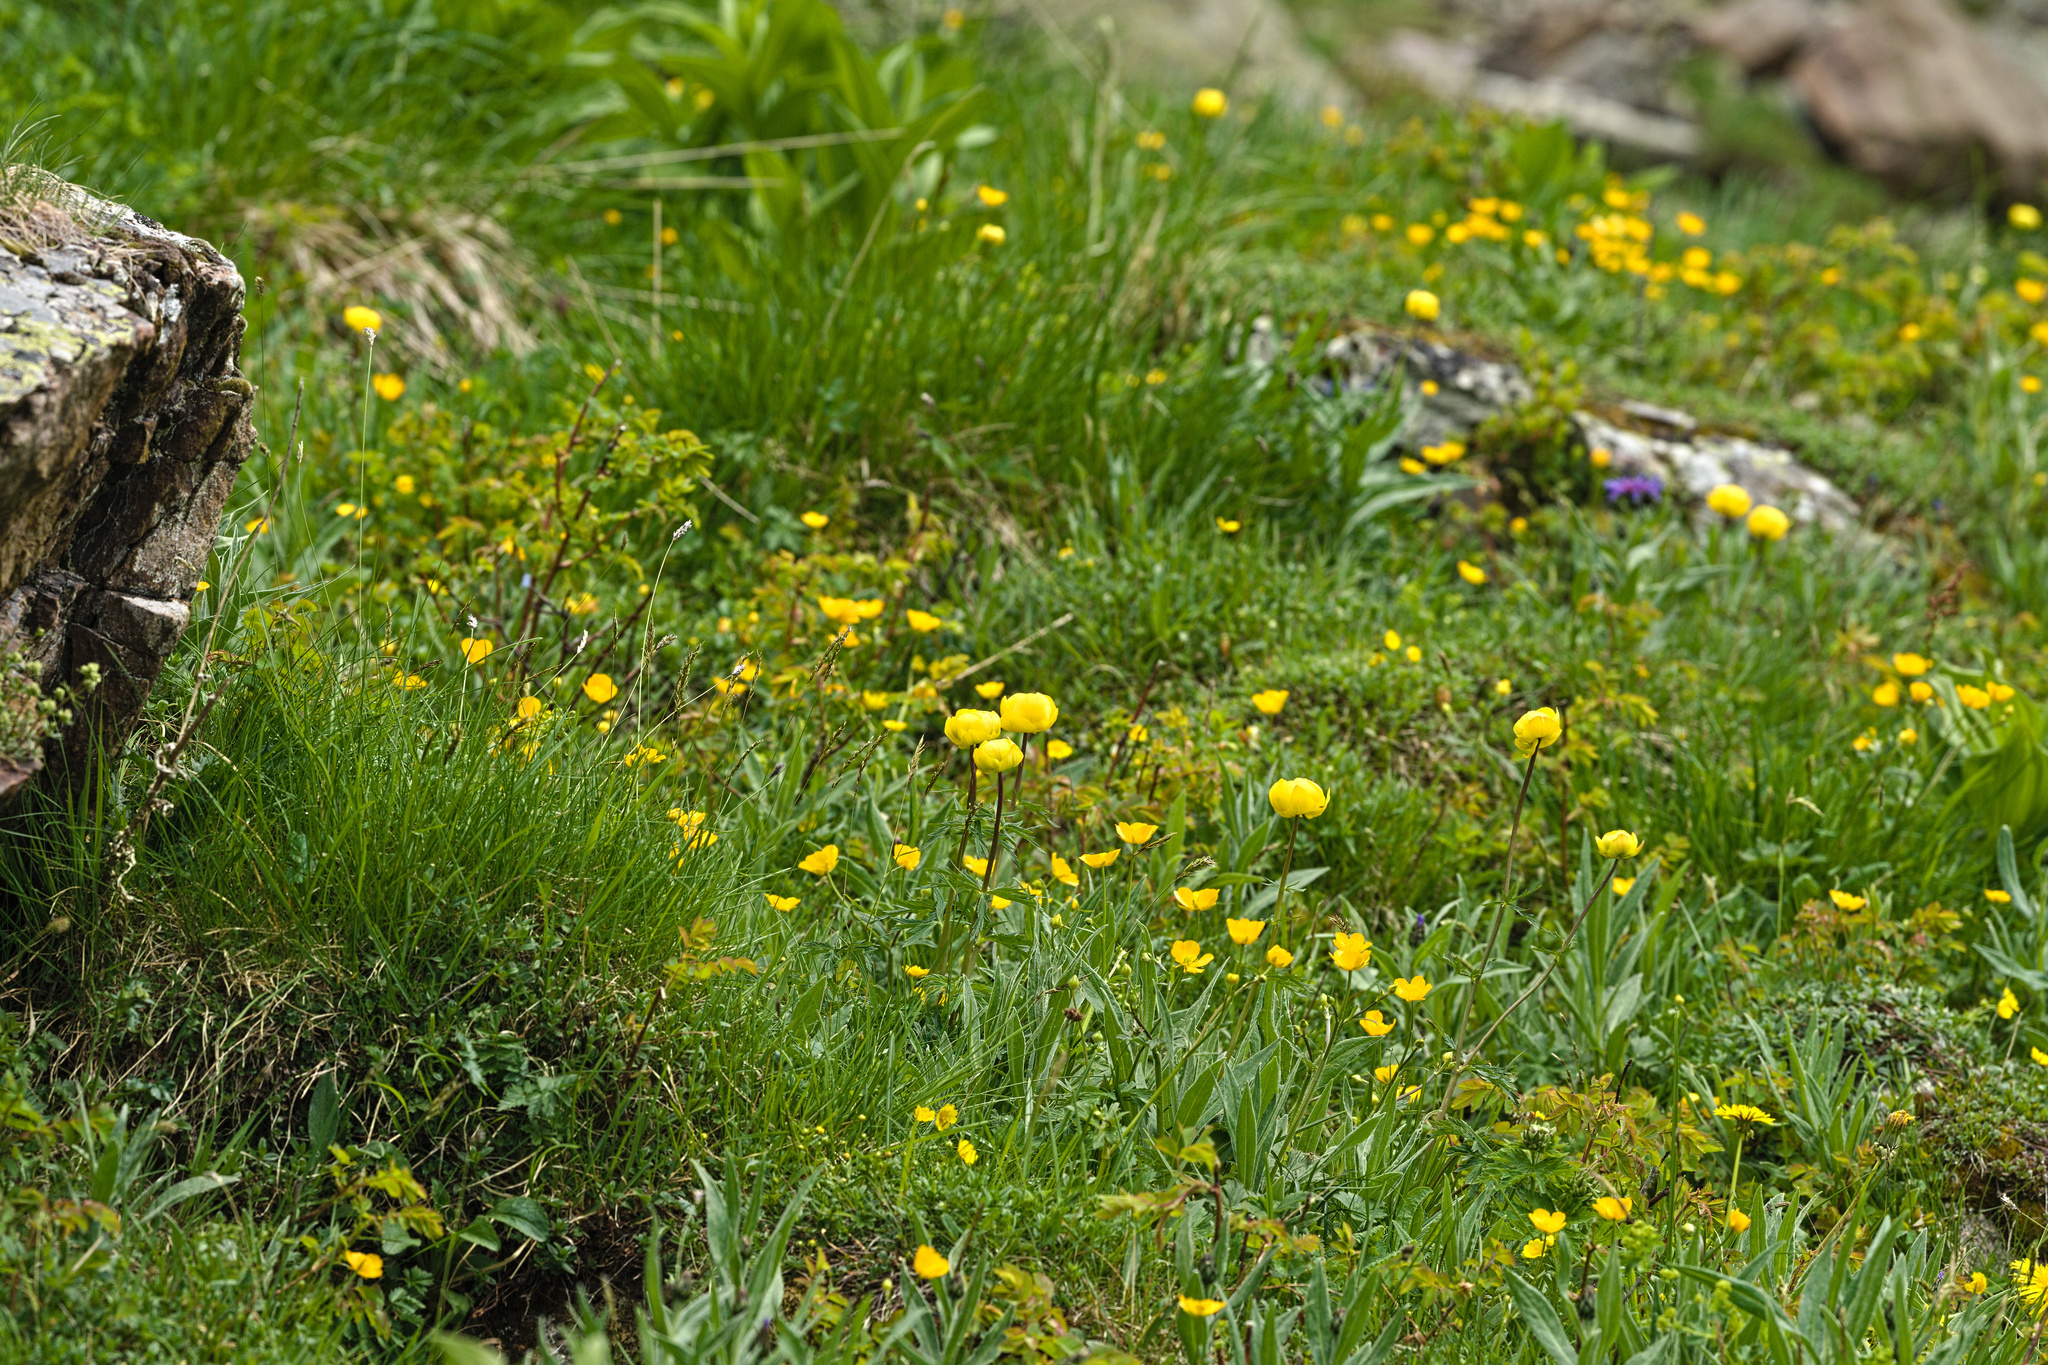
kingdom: Plantae
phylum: Tracheophyta
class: Magnoliopsida
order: Ranunculales
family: Ranunculaceae
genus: Trollius
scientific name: Trollius europaeus
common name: European globeflower
